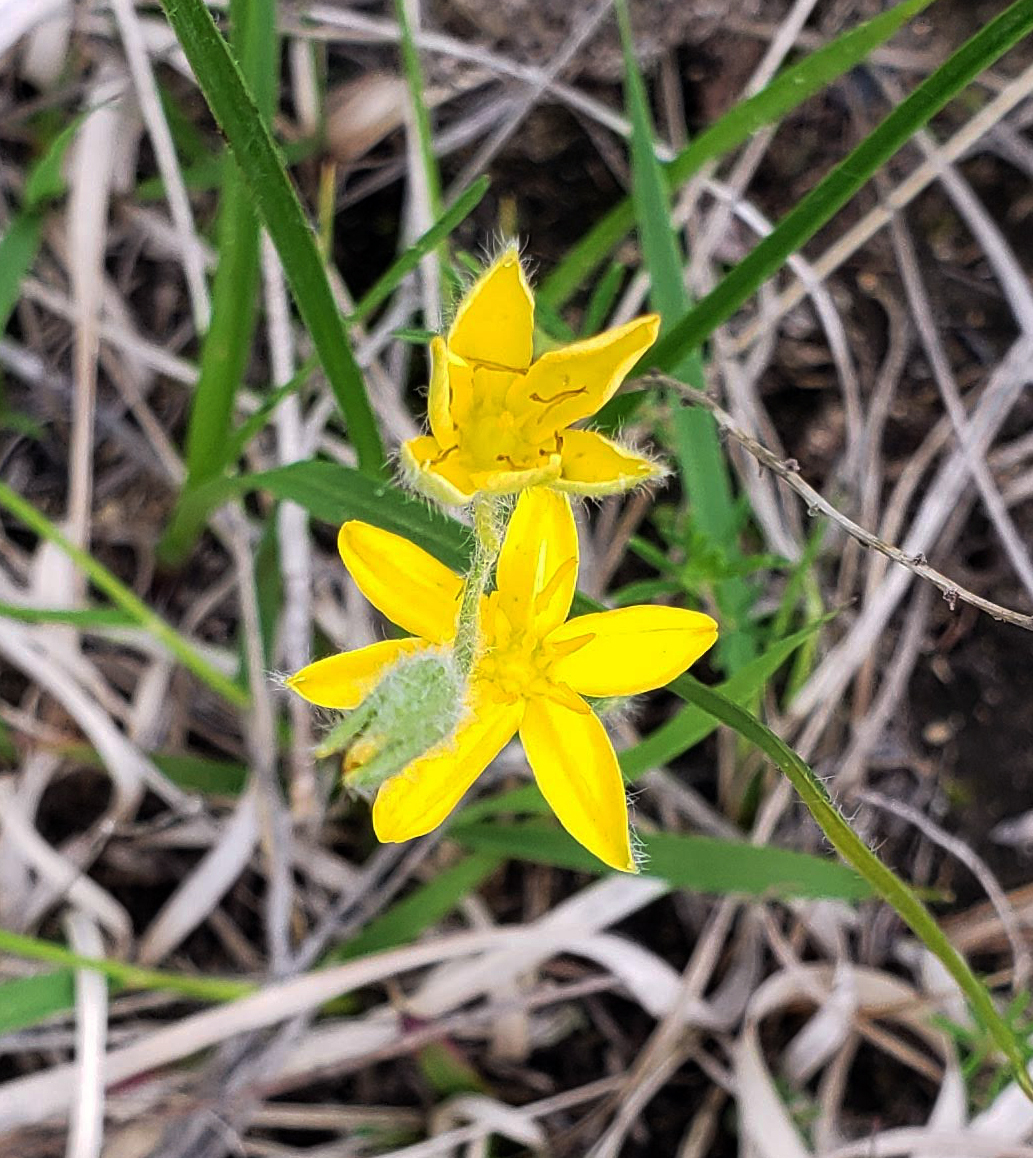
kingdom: Plantae
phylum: Tracheophyta
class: Liliopsida
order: Asparagales
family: Hypoxidaceae
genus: Hypoxis
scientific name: Hypoxis hirsuta
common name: Common goldstar
